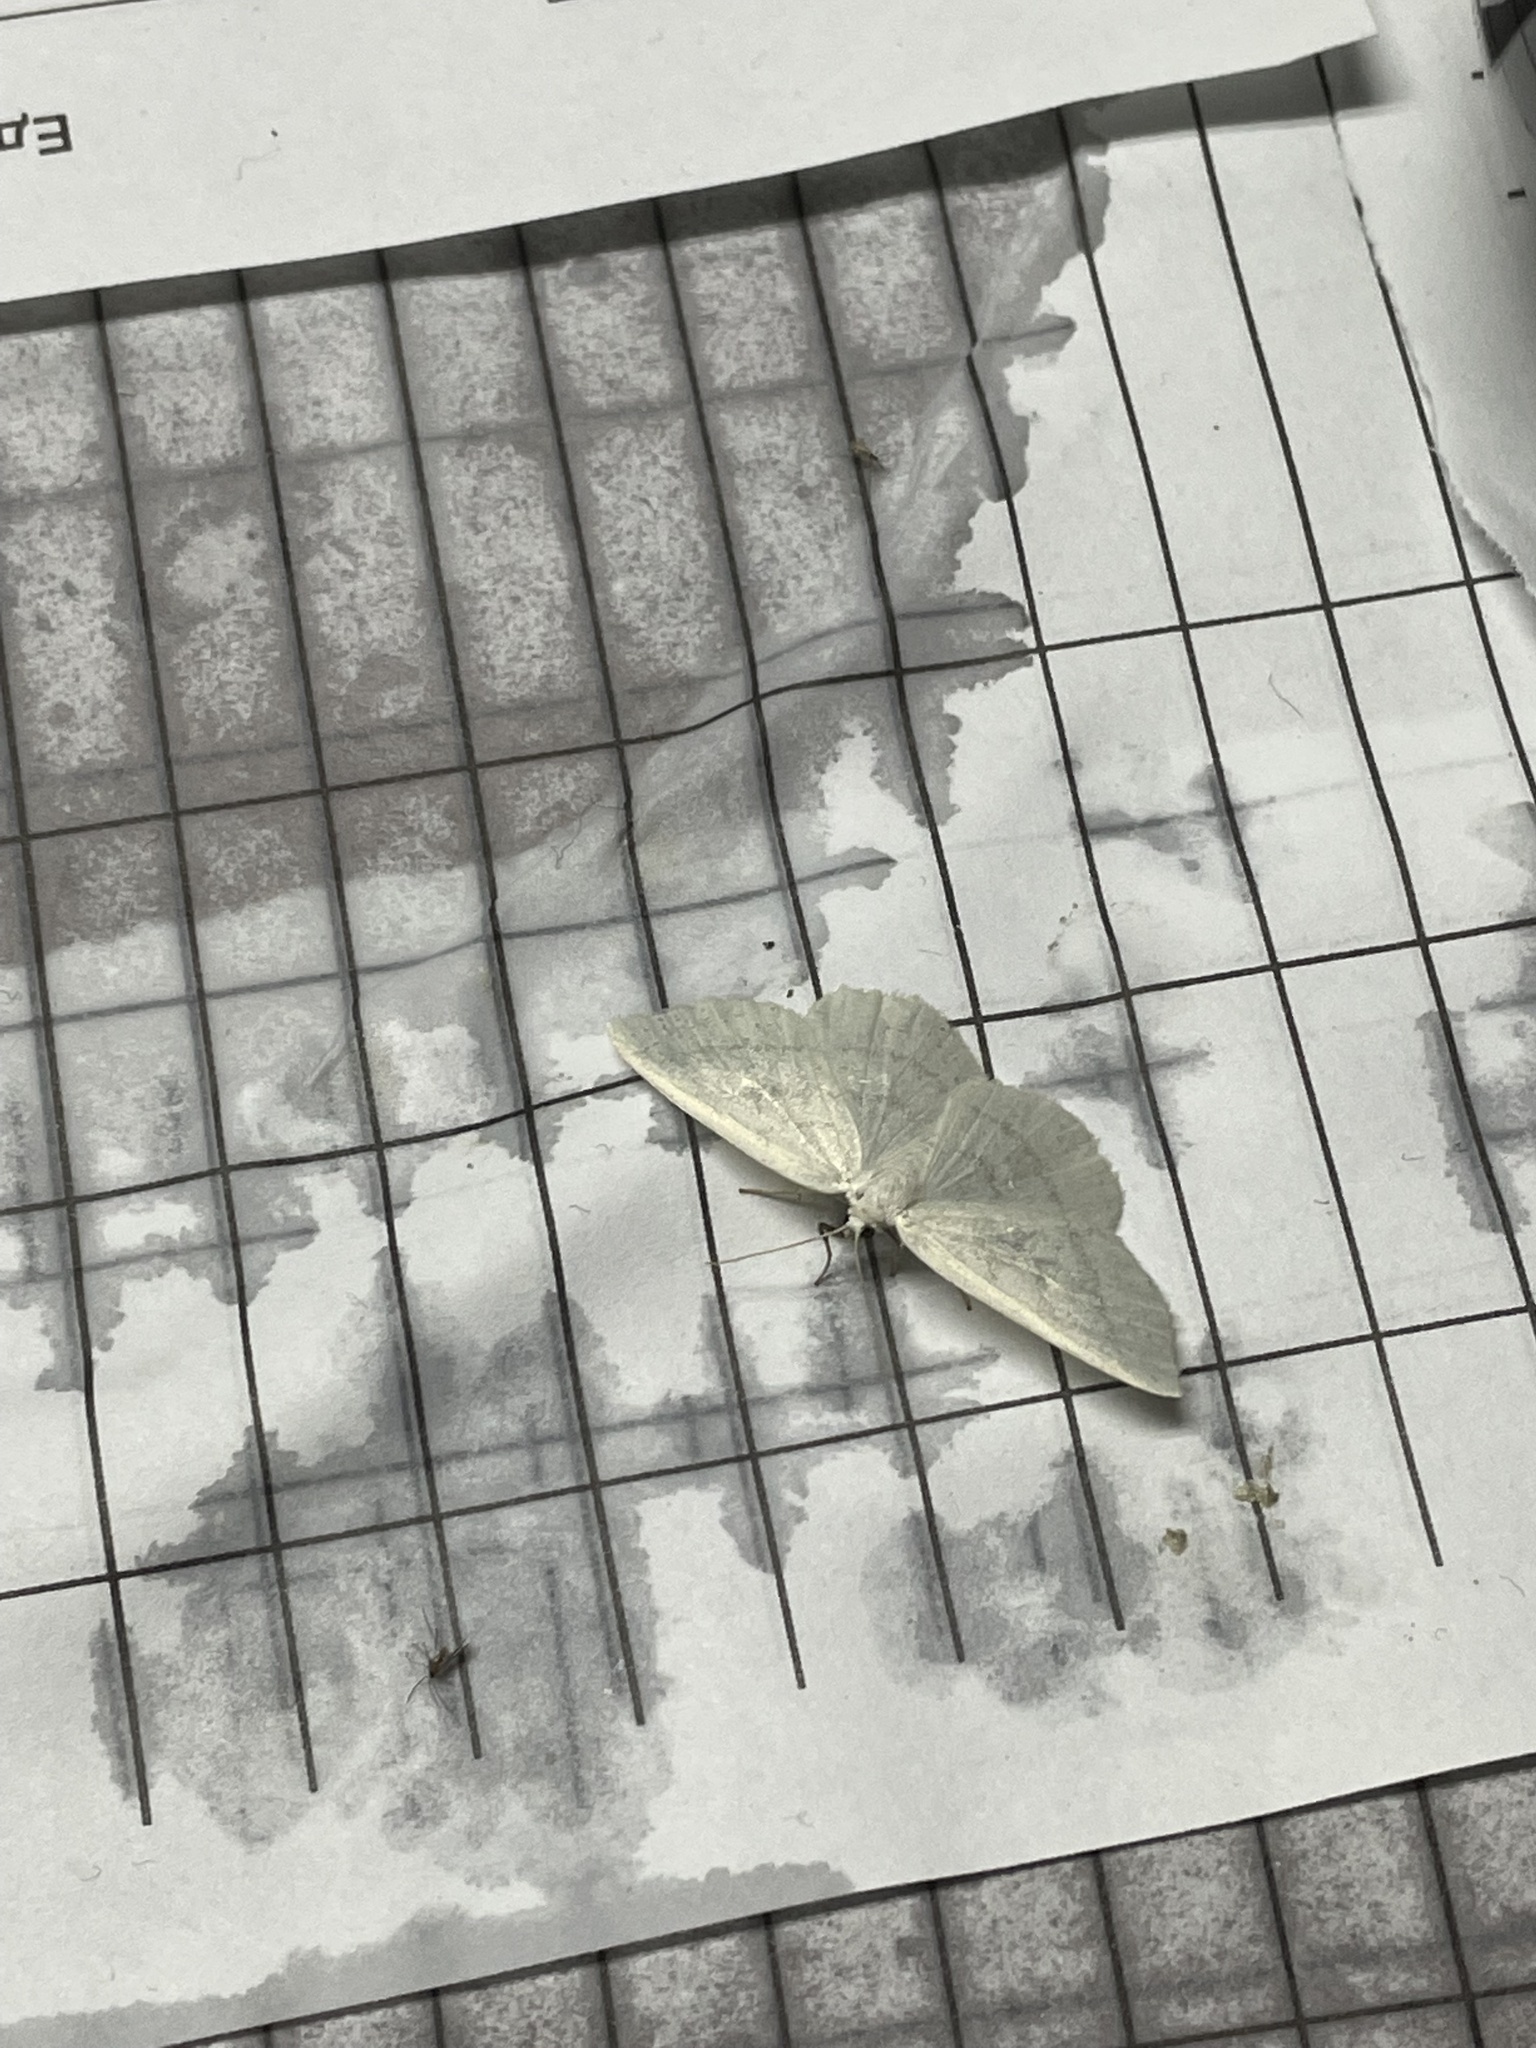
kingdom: Animalia
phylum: Arthropoda
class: Insecta
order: Lepidoptera
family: Geometridae
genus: Cabera
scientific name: Cabera pusaria
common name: Common white wave
